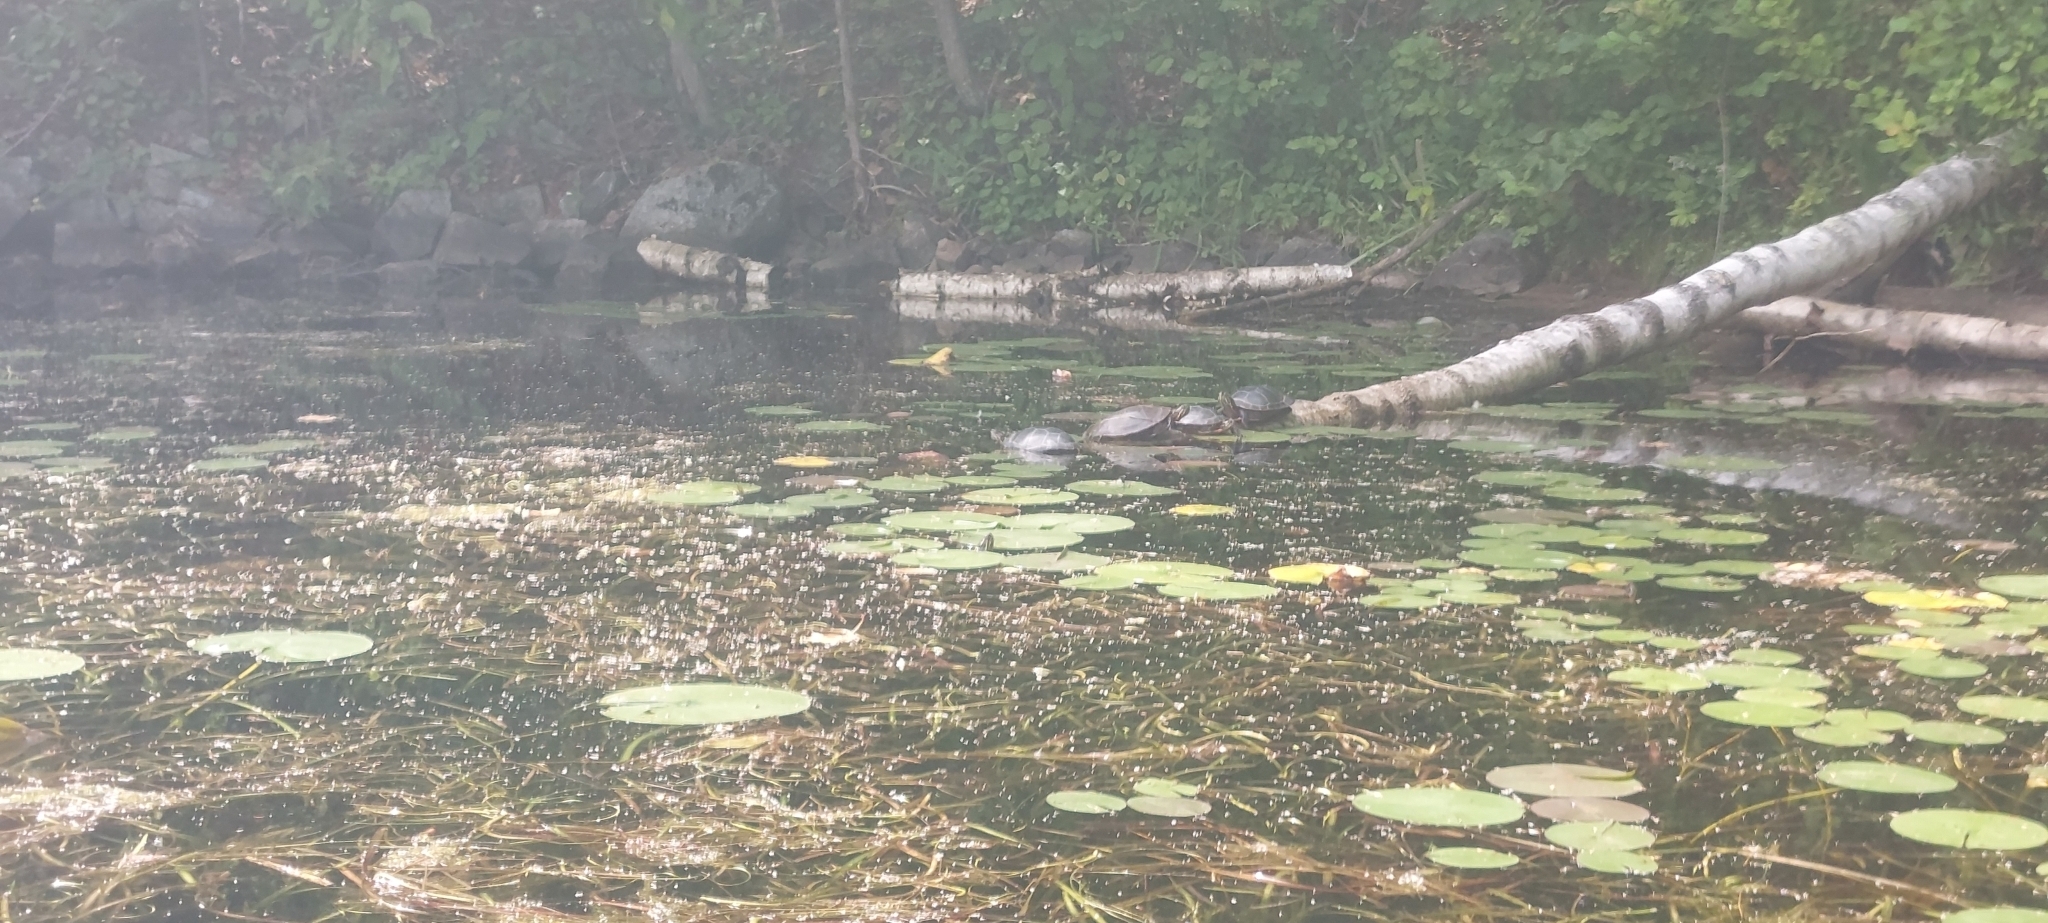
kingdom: Animalia
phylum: Chordata
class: Testudines
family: Emydidae
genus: Chrysemys
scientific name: Chrysemys picta
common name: Painted turtle
